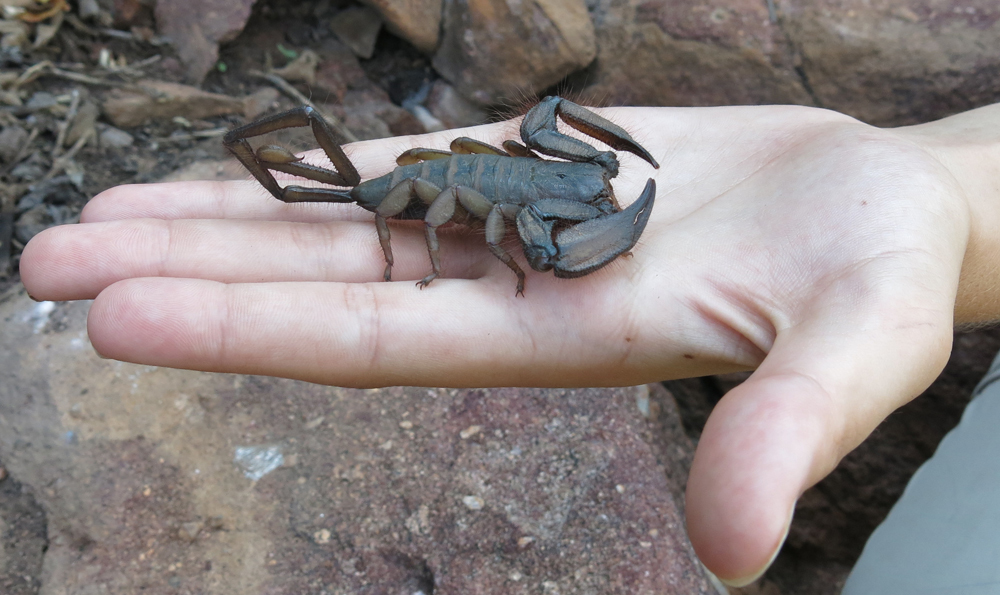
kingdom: Animalia
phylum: Arthropoda
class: Arachnida
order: Scorpiones
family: Hormuridae
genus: Hadogenes
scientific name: Hadogenes troglodytes
